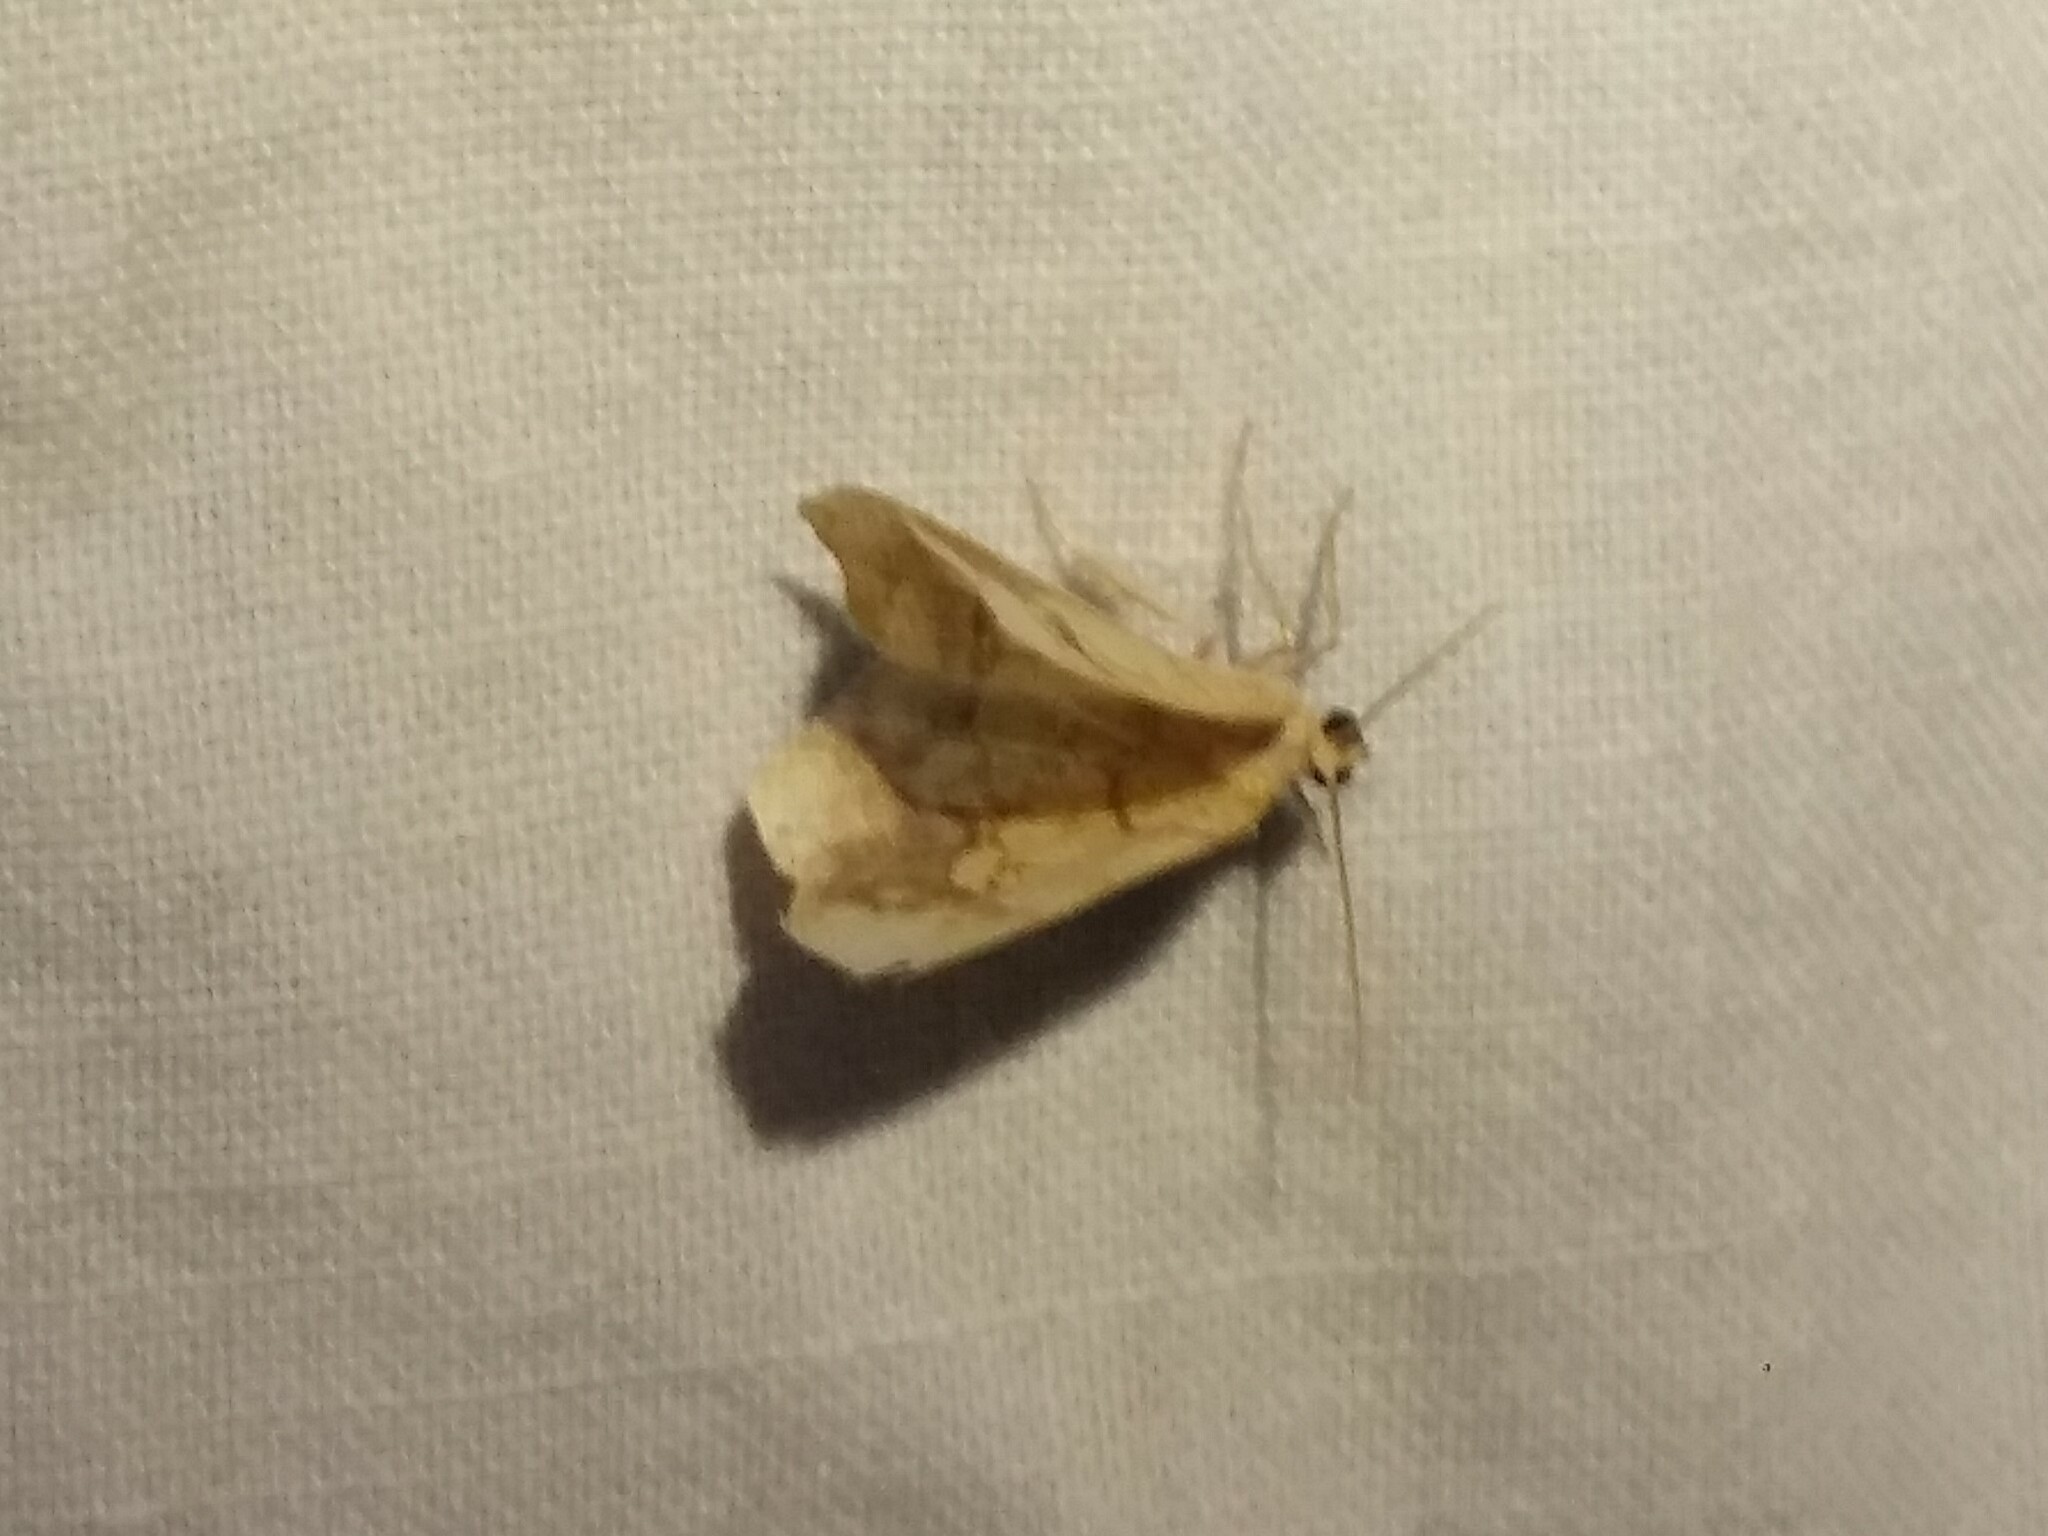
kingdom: Animalia
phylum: Arthropoda
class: Insecta
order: Lepidoptera
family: Geometridae
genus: Nematocampa
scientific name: Nematocampa resistaria
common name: Horned spanworm moth
